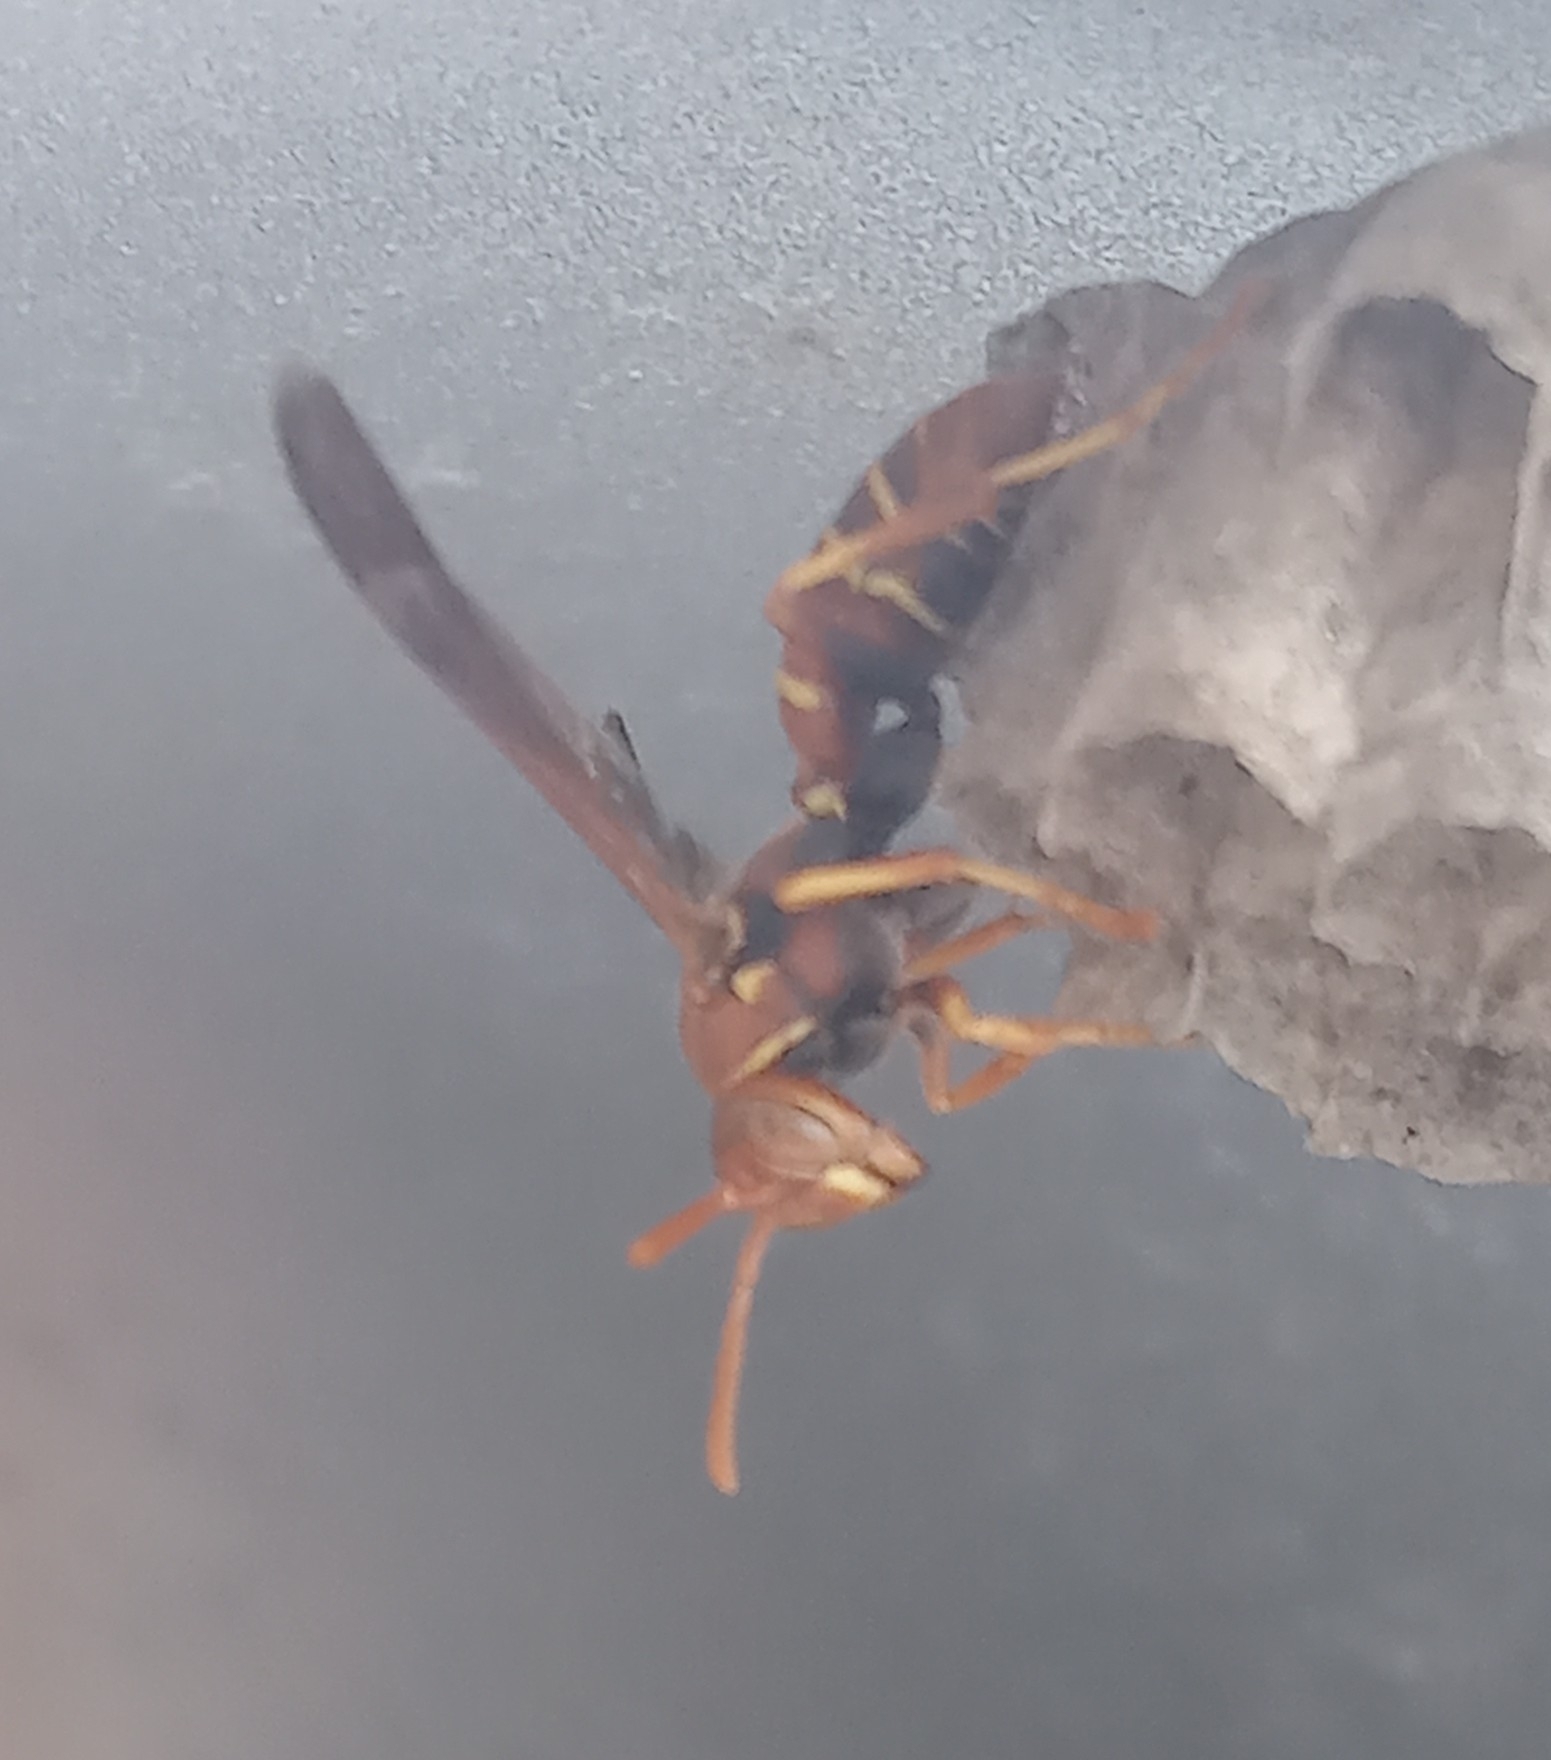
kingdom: Animalia
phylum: Arthropoda
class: Insecta
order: Hymenoptera
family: Eumenidae
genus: Polistes
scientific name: Polistes dorsalis
